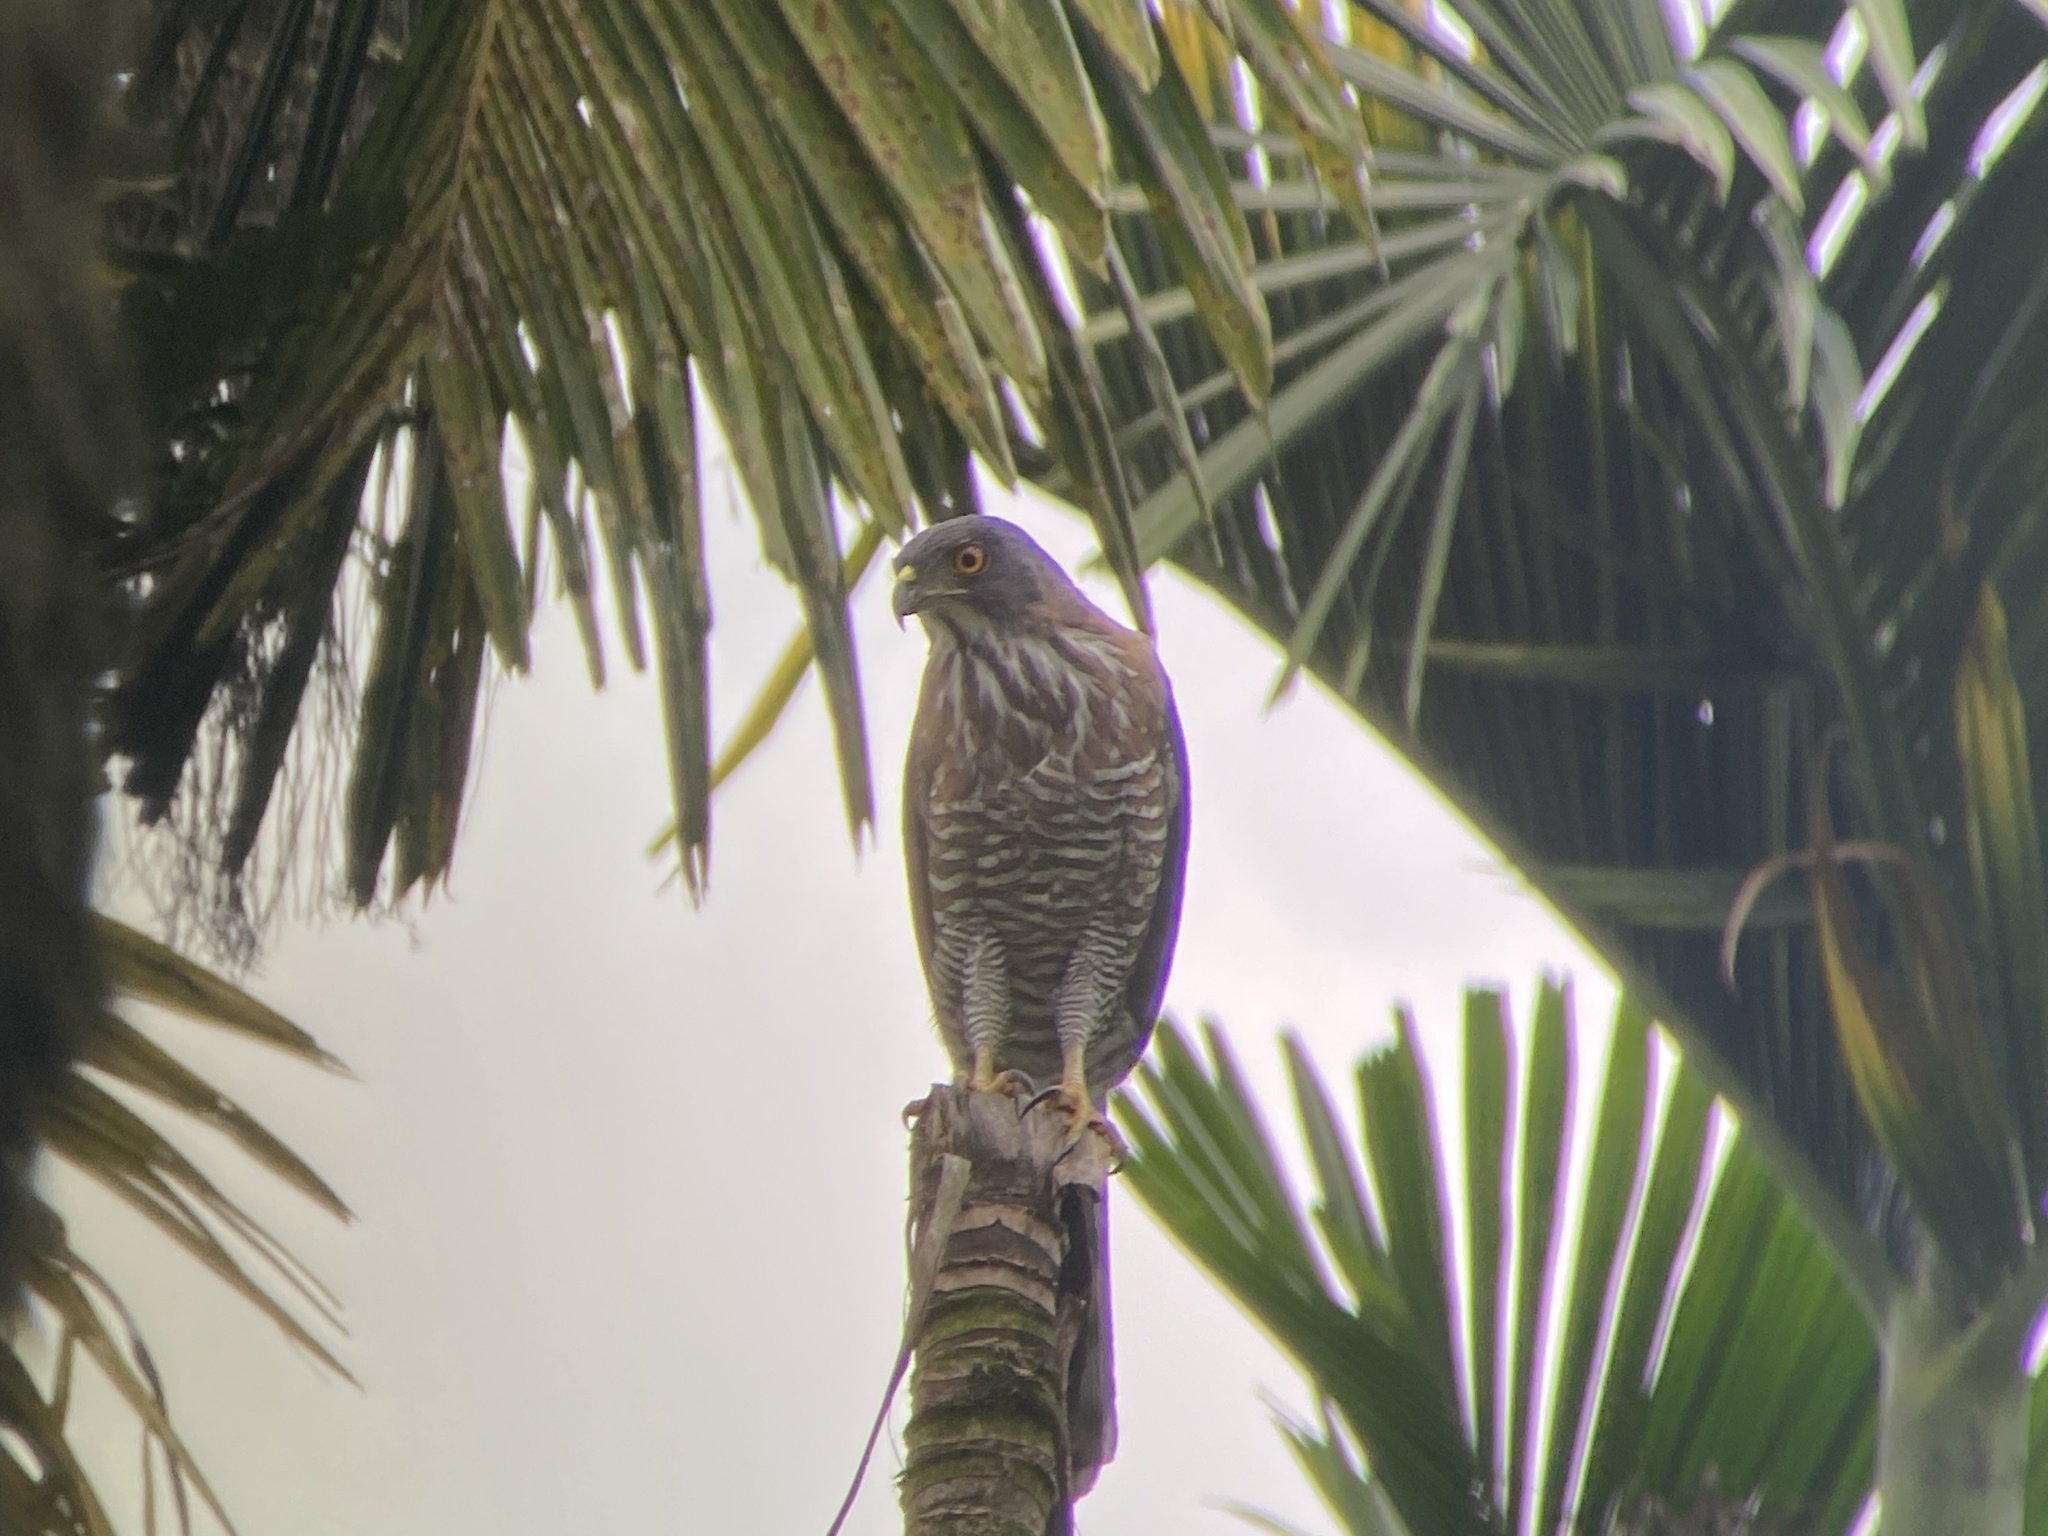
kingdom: Animalia
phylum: Chordata
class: Aves
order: Accipitriformes
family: Accipitridae
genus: Accipiter
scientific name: Accipiter trivirgatus
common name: Crested goshawk
